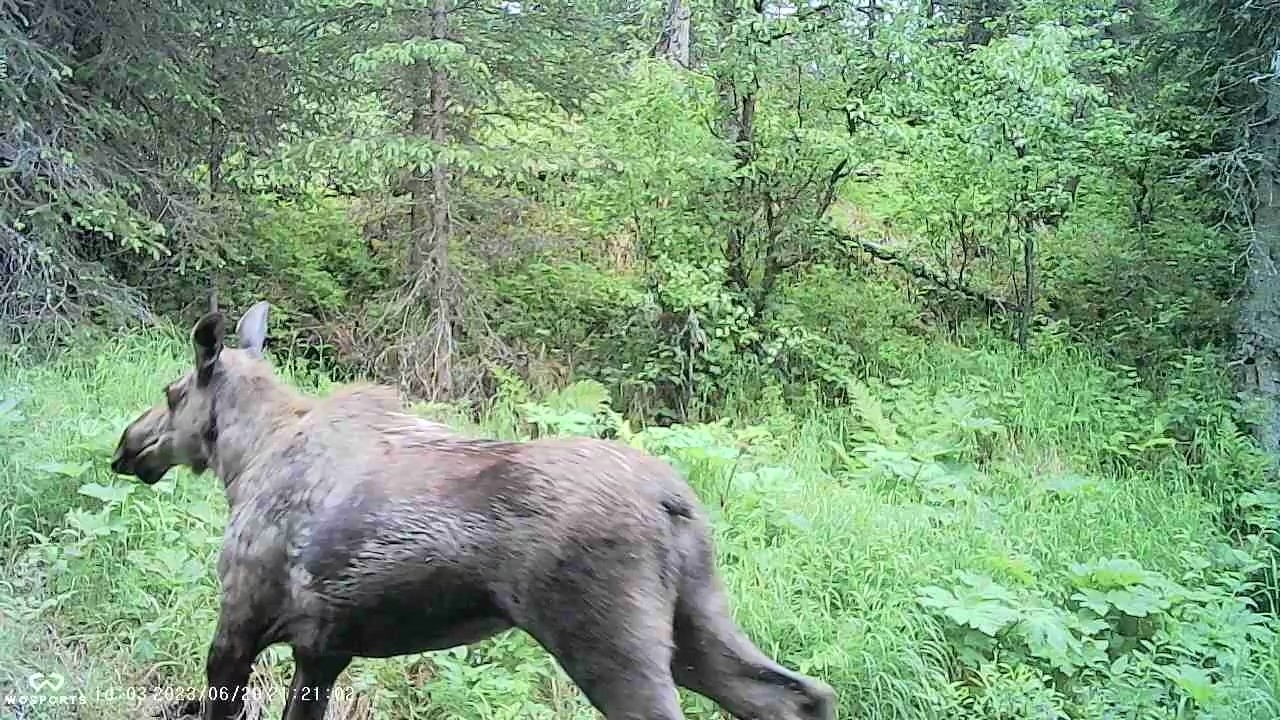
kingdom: Animalia
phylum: Chordata
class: Mammalia
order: Artiodactyla
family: Cervidae
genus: Alces
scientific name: Alces alces
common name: Moose
